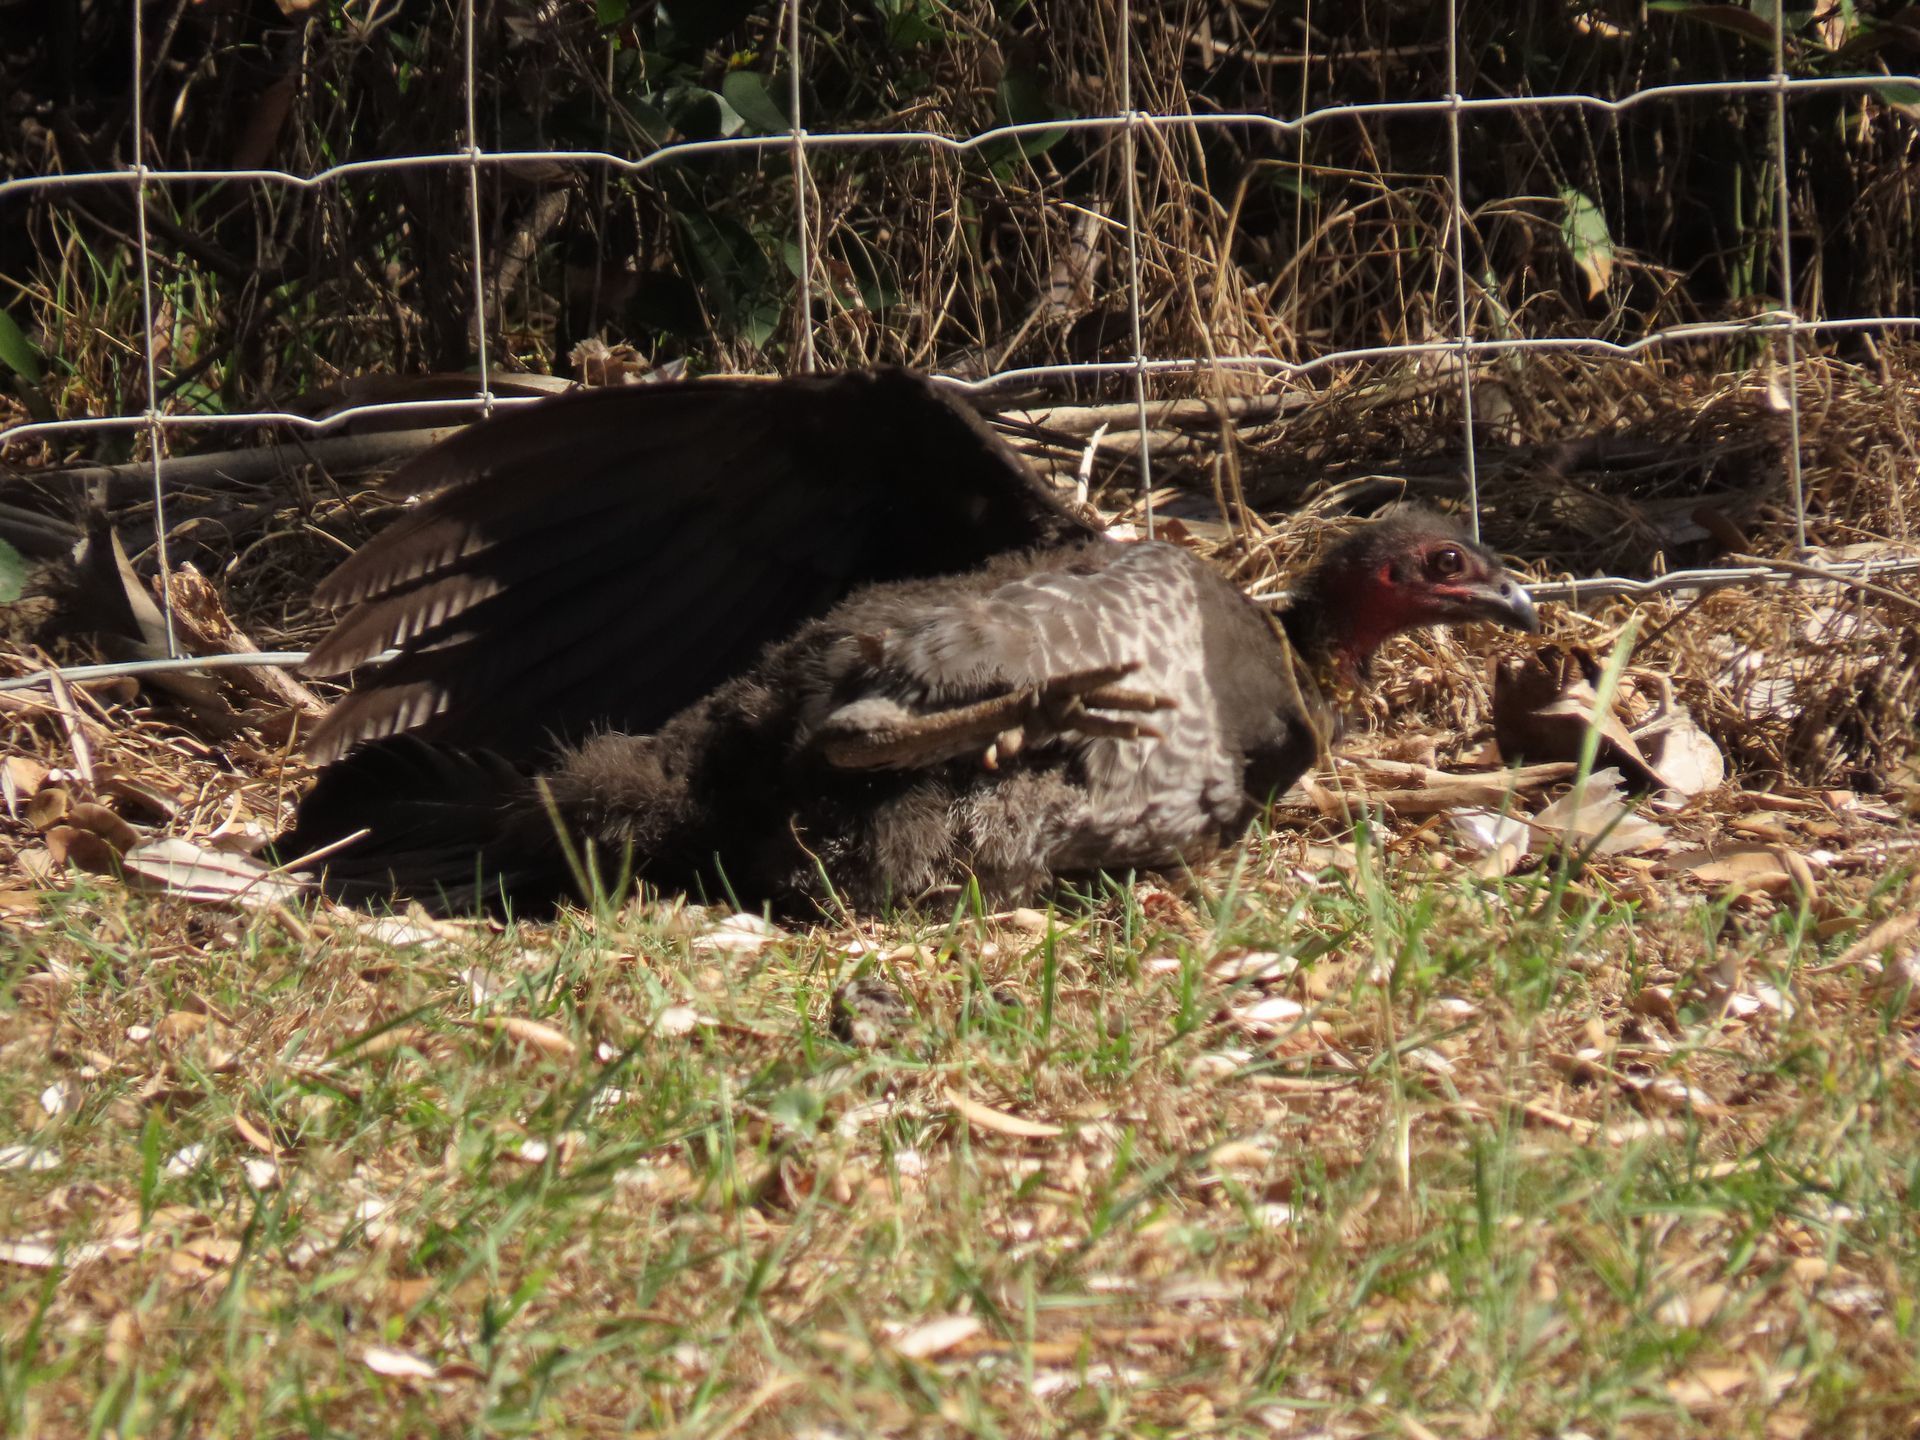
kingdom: Animalia
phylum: Chordata
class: Aves
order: Galliformes
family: Megapodiidae
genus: Alectura
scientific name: Alectura lathami
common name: Australian brushturkey
